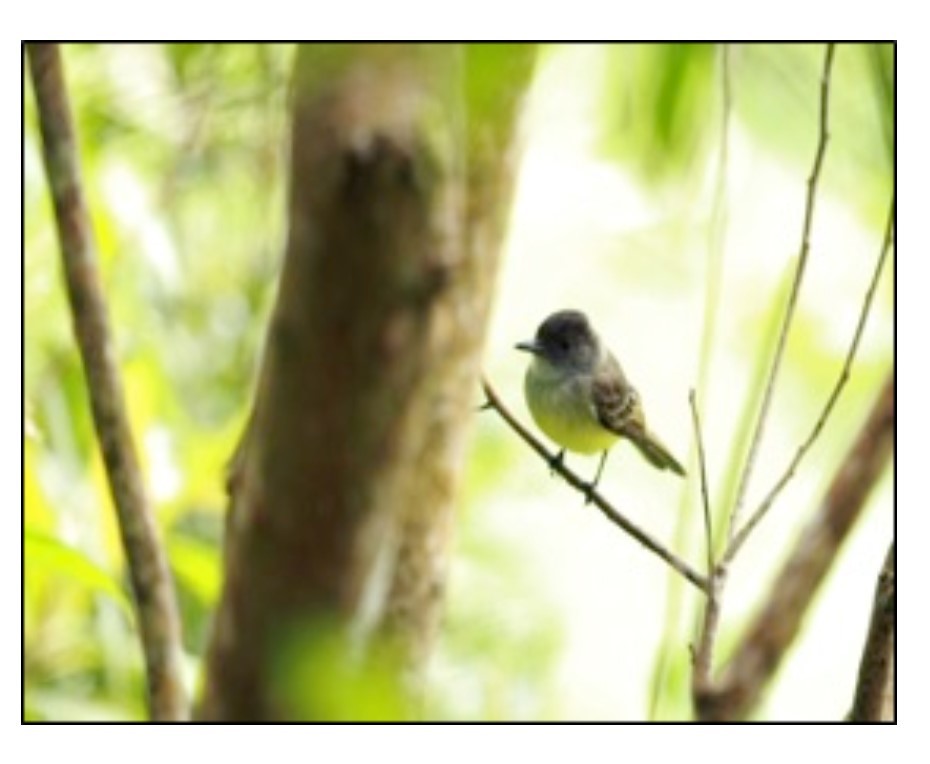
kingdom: Animalia
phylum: Chordata
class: Aves
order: Passeriformes
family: Tyrannidae
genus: Myiarchus
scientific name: Myiarchus tuberculifer
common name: Dusky-capped flycatcher
